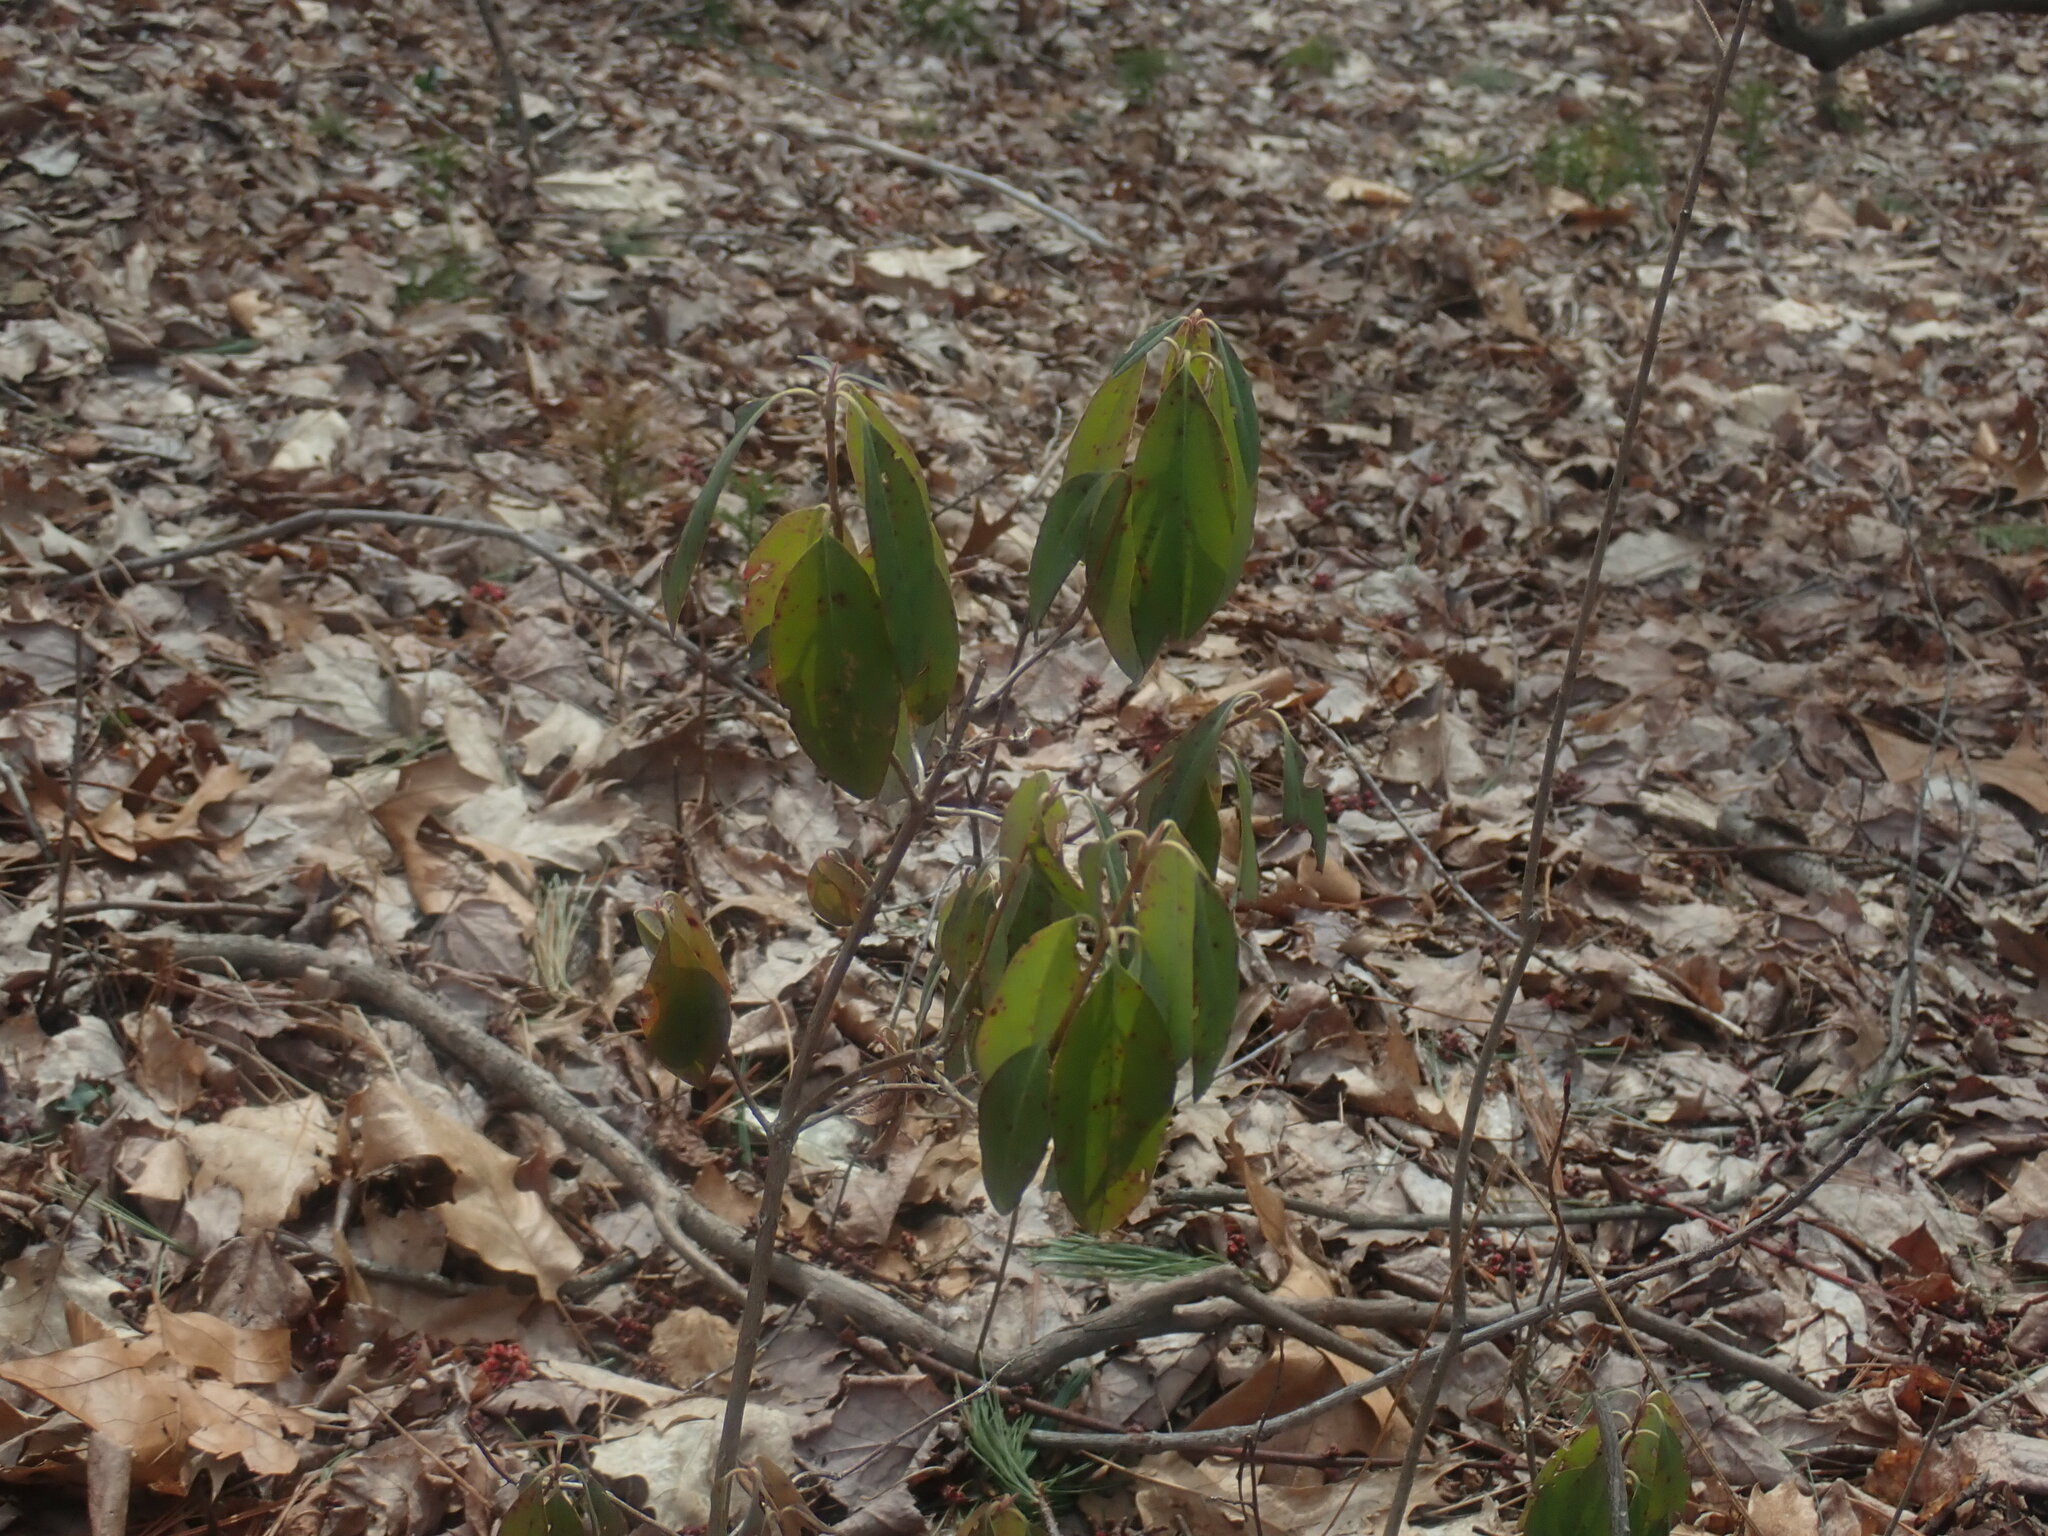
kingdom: Plantae
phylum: Tracheophyta
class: Magnoliopsida
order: Ericales
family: Ericaceae
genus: Kalmia
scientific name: Kalmia angustifolia
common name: Sheep-laurel
